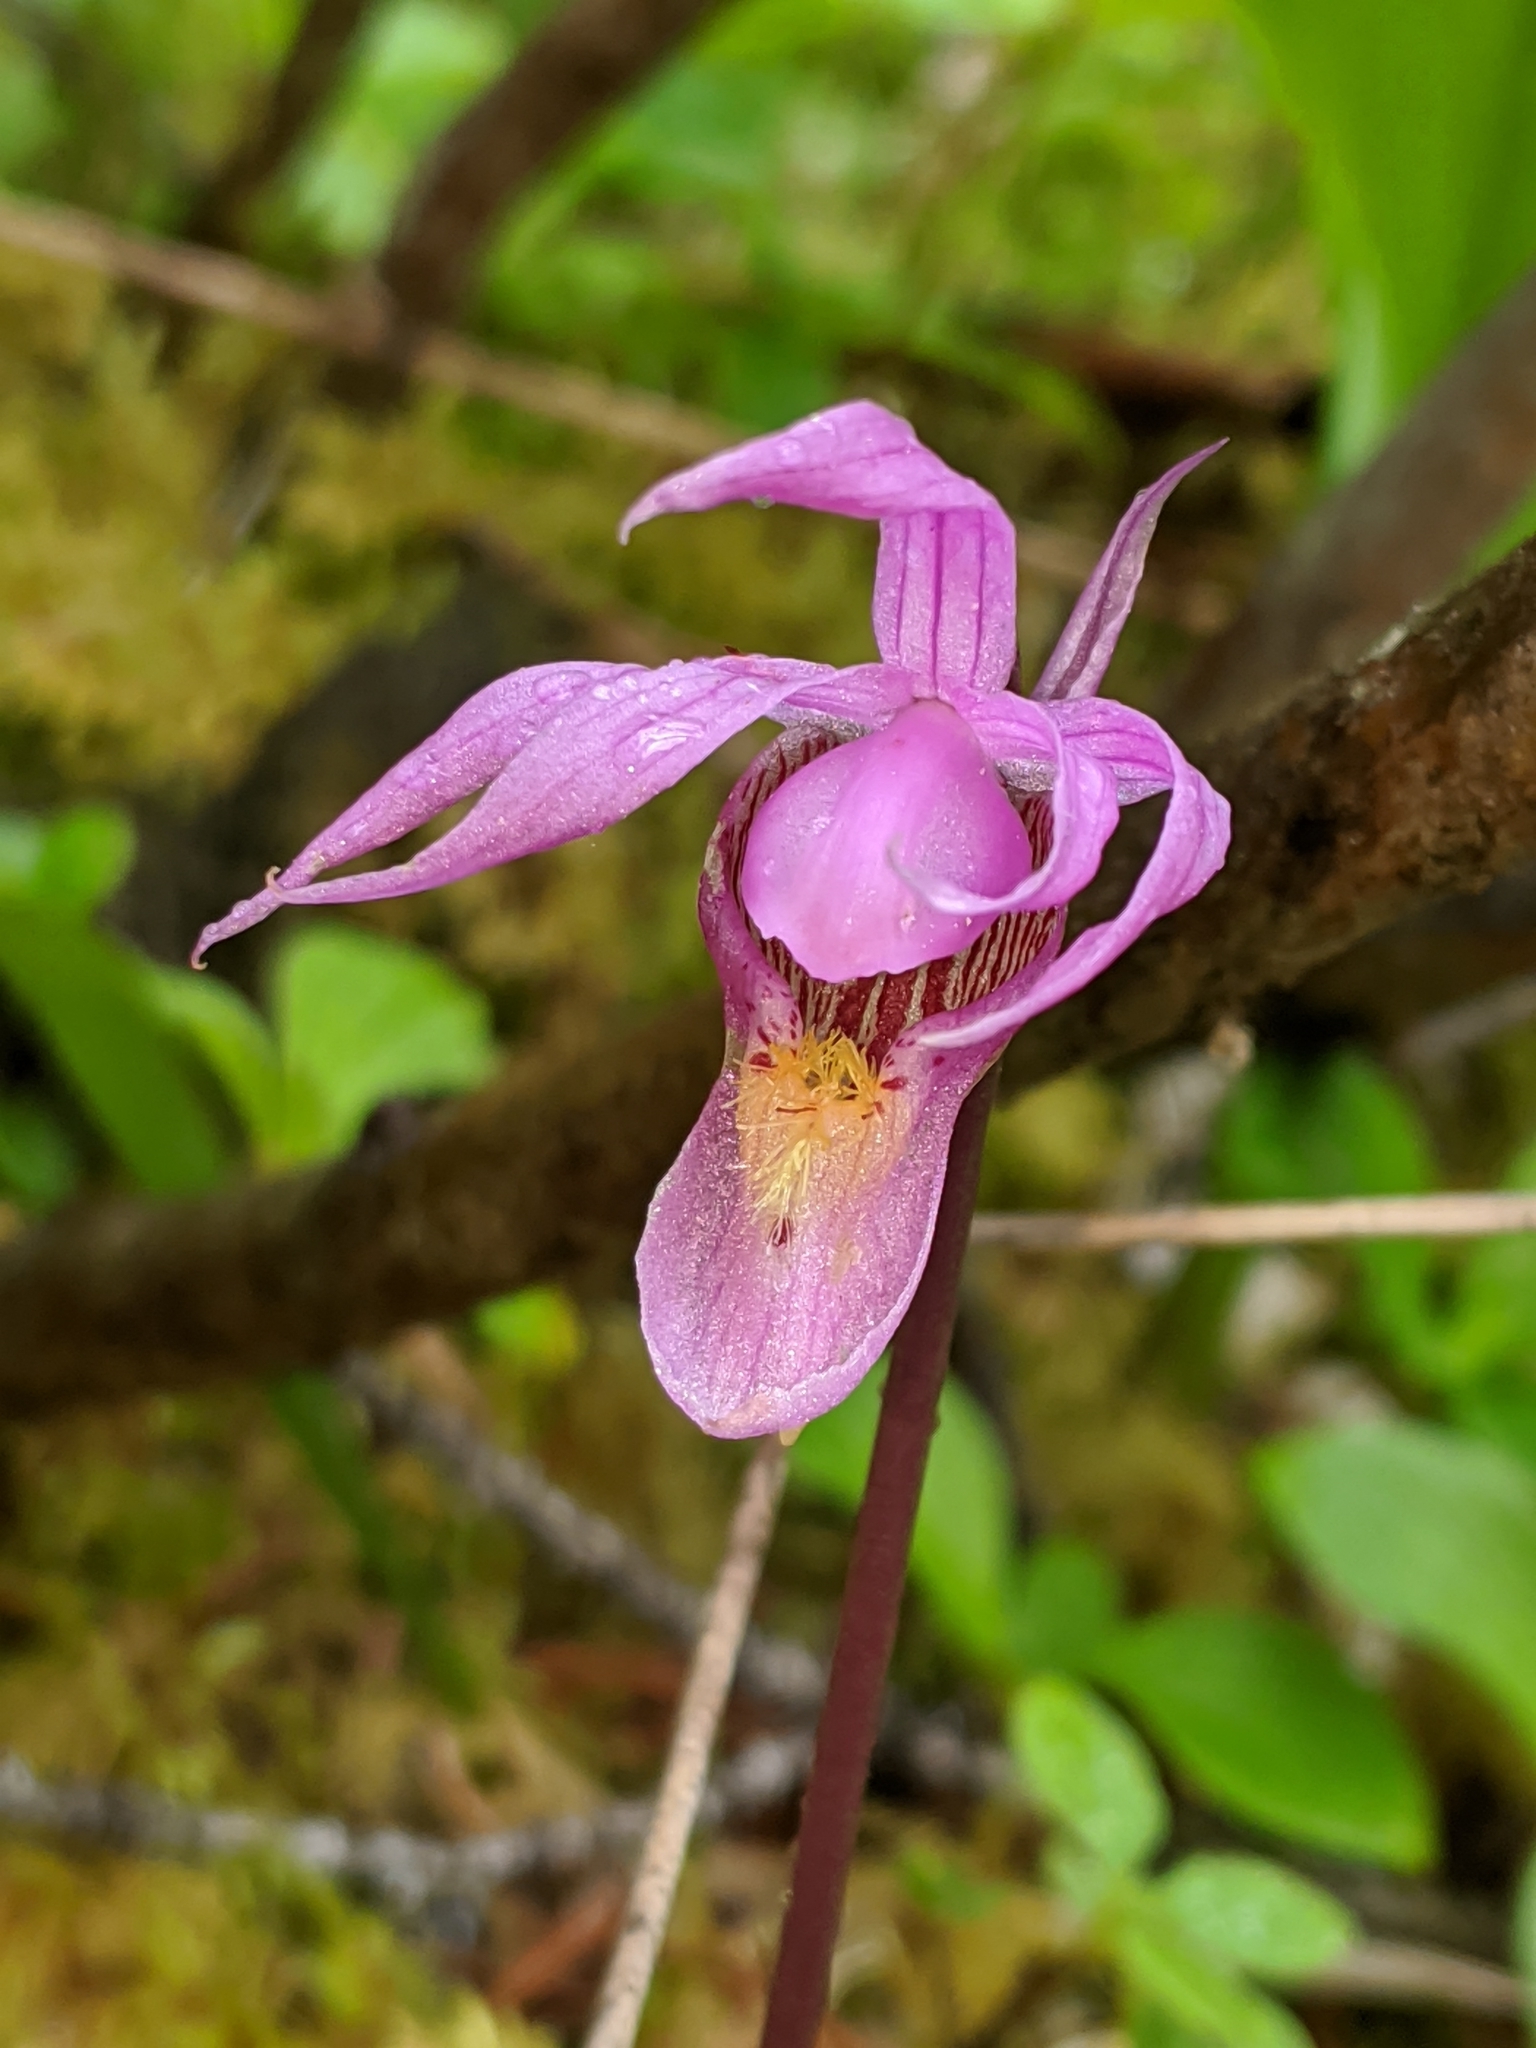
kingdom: Plantae
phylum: Tracheophyta
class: Liliopsida
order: Asparagales
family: Orchidaceae
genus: Calypso
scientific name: Calypso bulbosa
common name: Calypso
